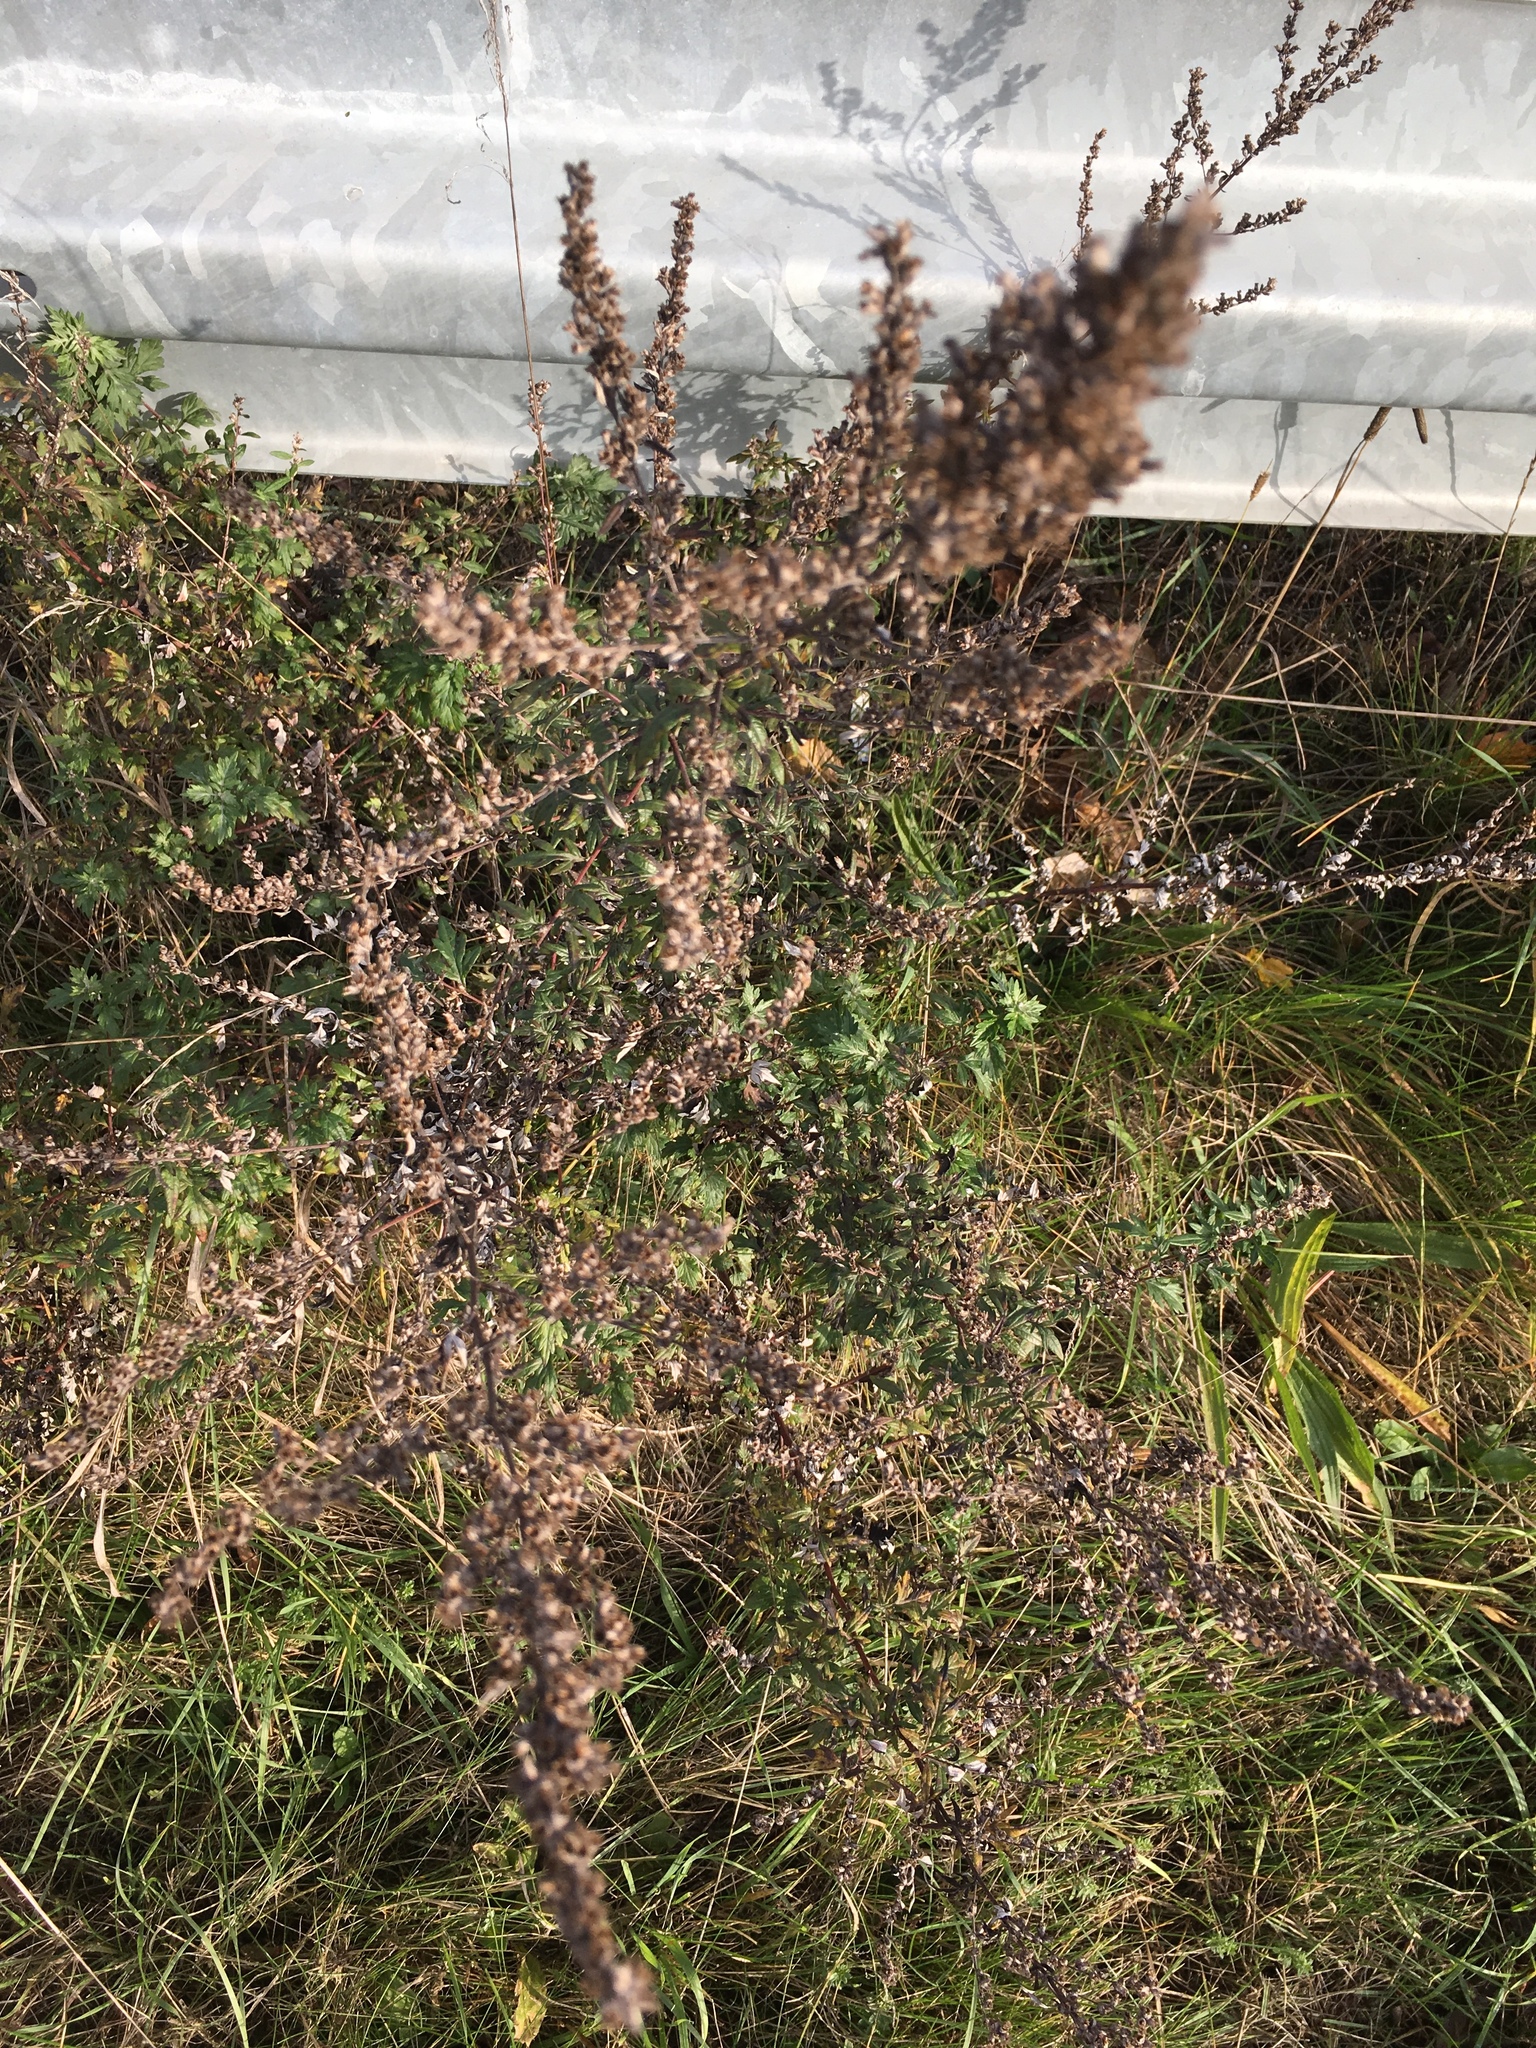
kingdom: Plantae
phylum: Tracheophyta
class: Magnoliopsida
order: Asterales
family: Asteraceae
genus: Artemisia
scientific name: Artemisia vulgaris
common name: Mugwort
